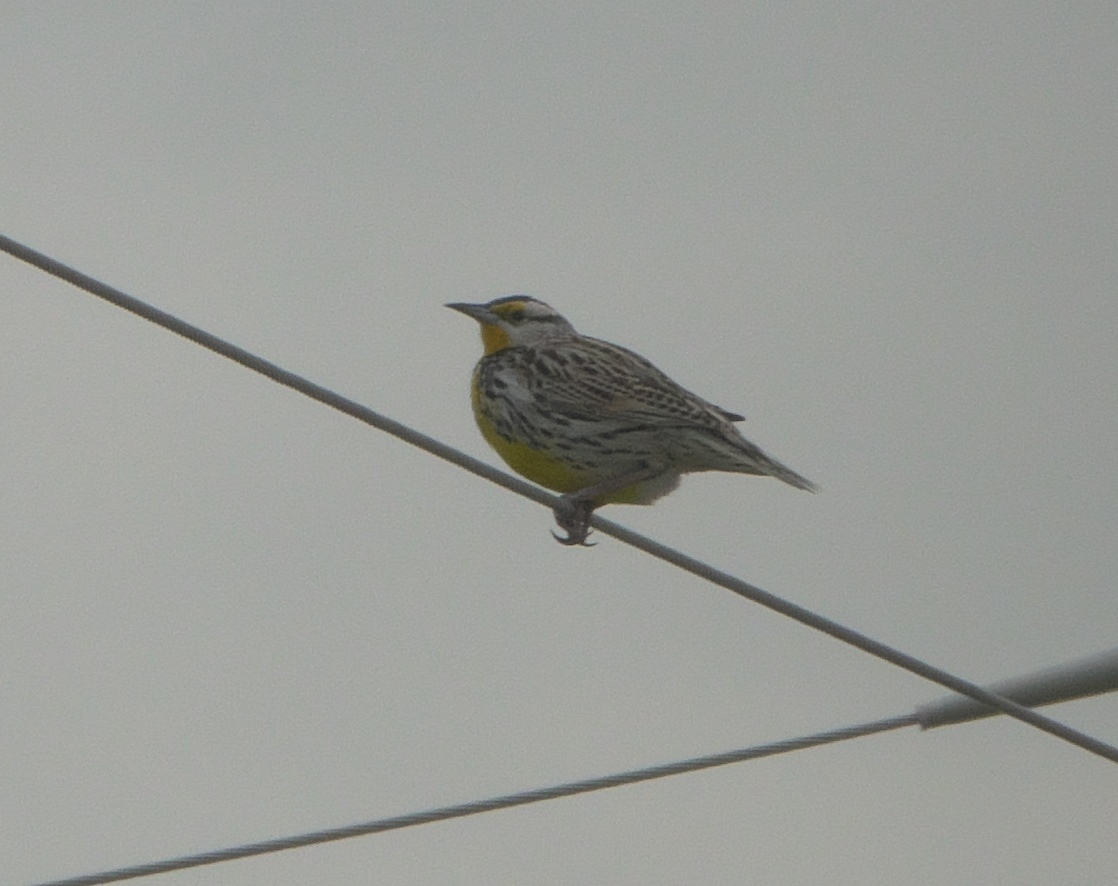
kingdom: Animalia
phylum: Chordata
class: Aves
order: Passeriformes
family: Icteridae
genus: Sturnella
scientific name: Sturnella magna
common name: Eastern meadowlark
